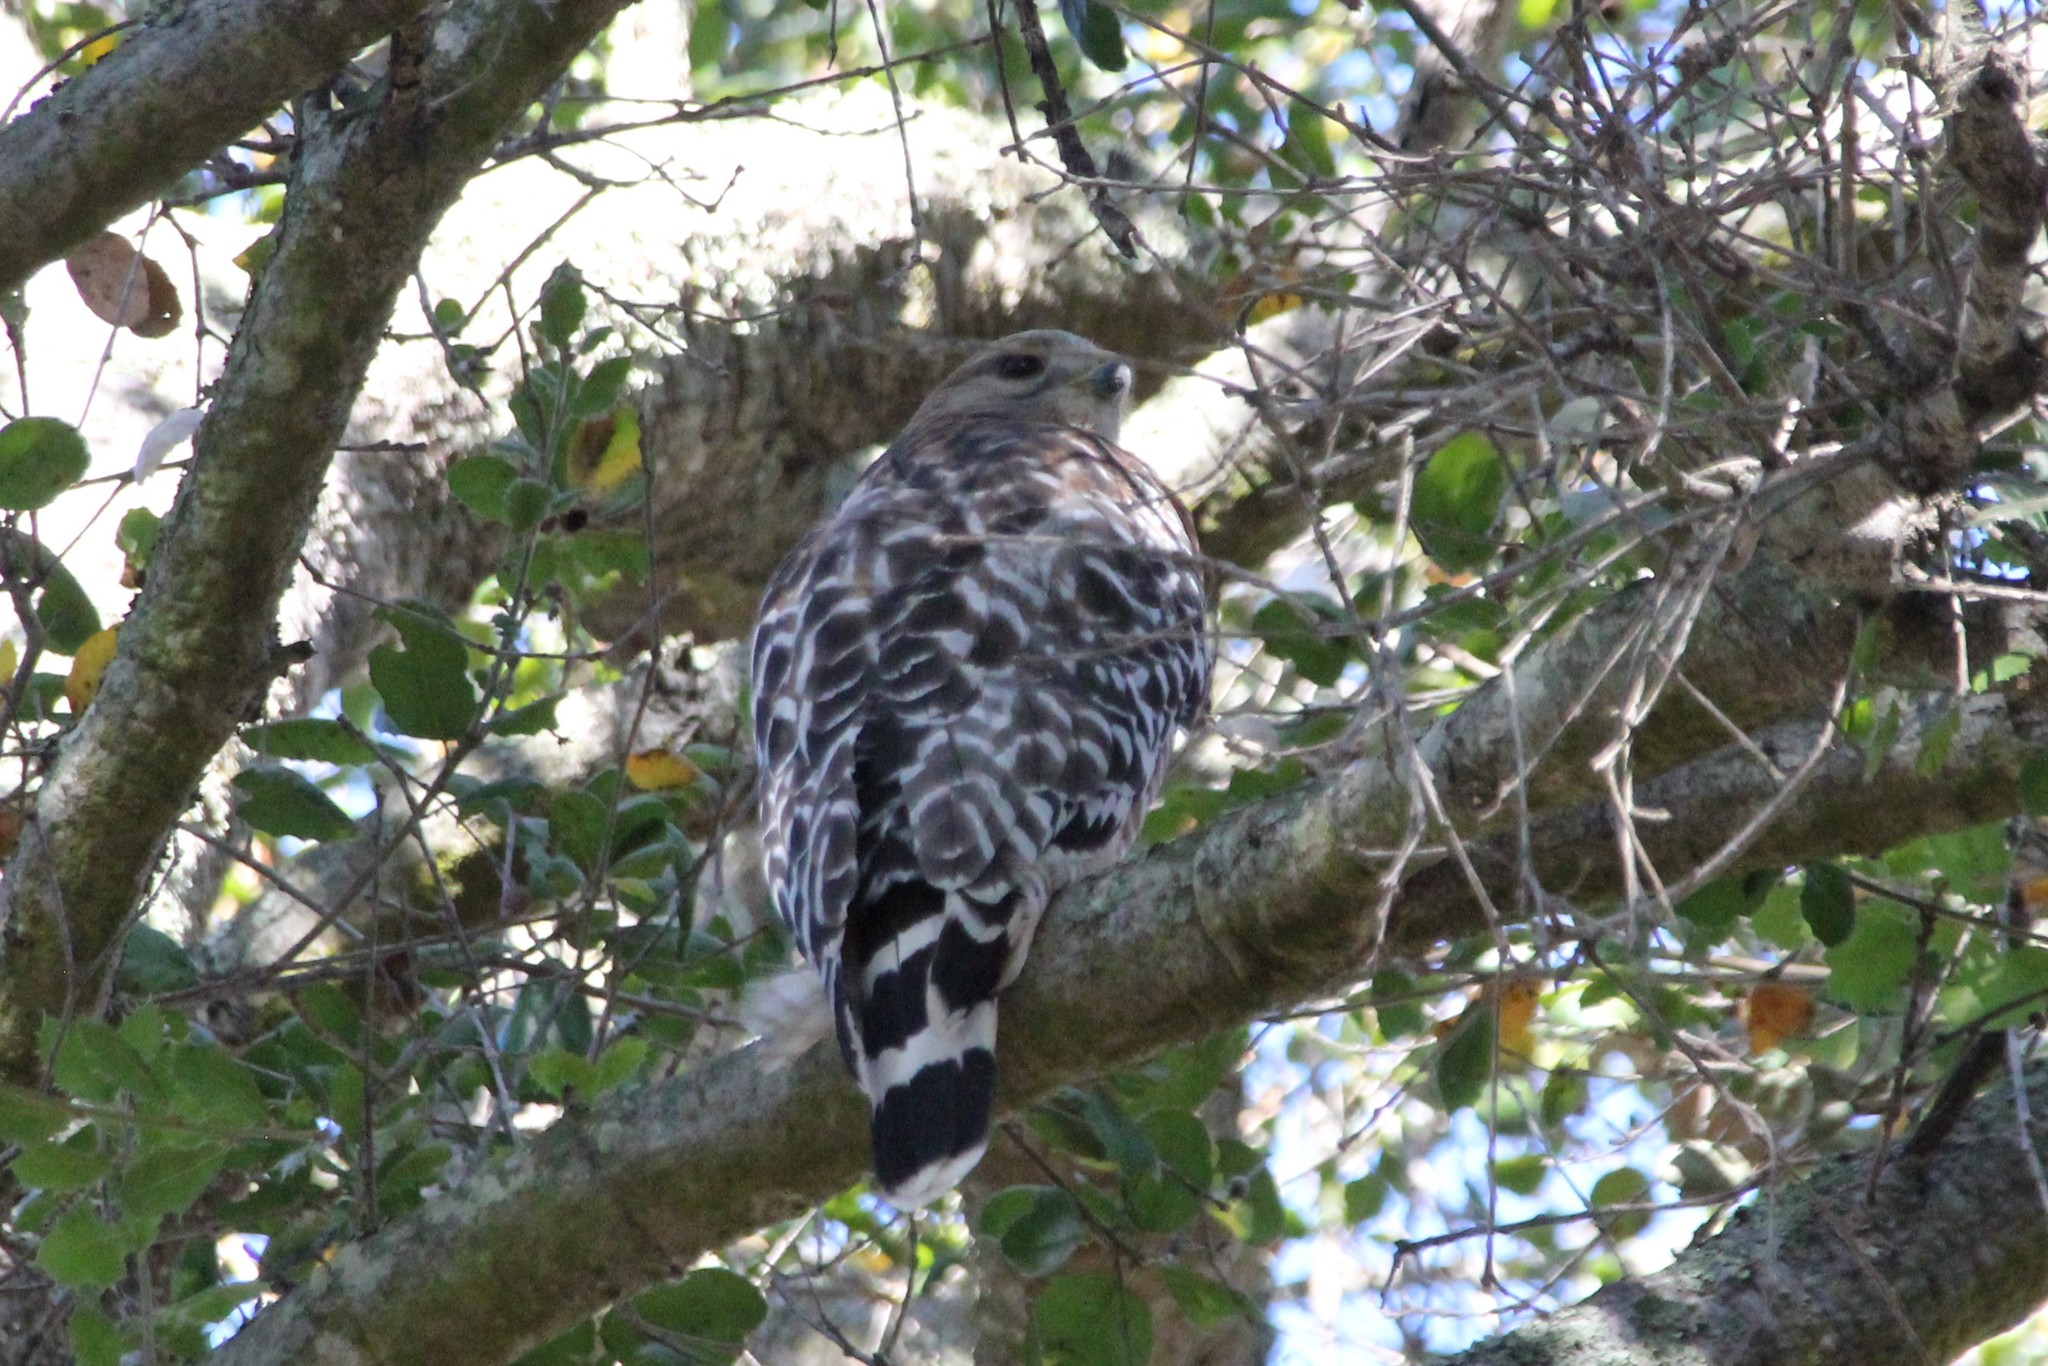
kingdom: Animalia
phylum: Chordata
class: Aves
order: Accipitriformes
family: Accipitridae
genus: Buteo
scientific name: Buteo lineatus
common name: Red-shouldered hawk
